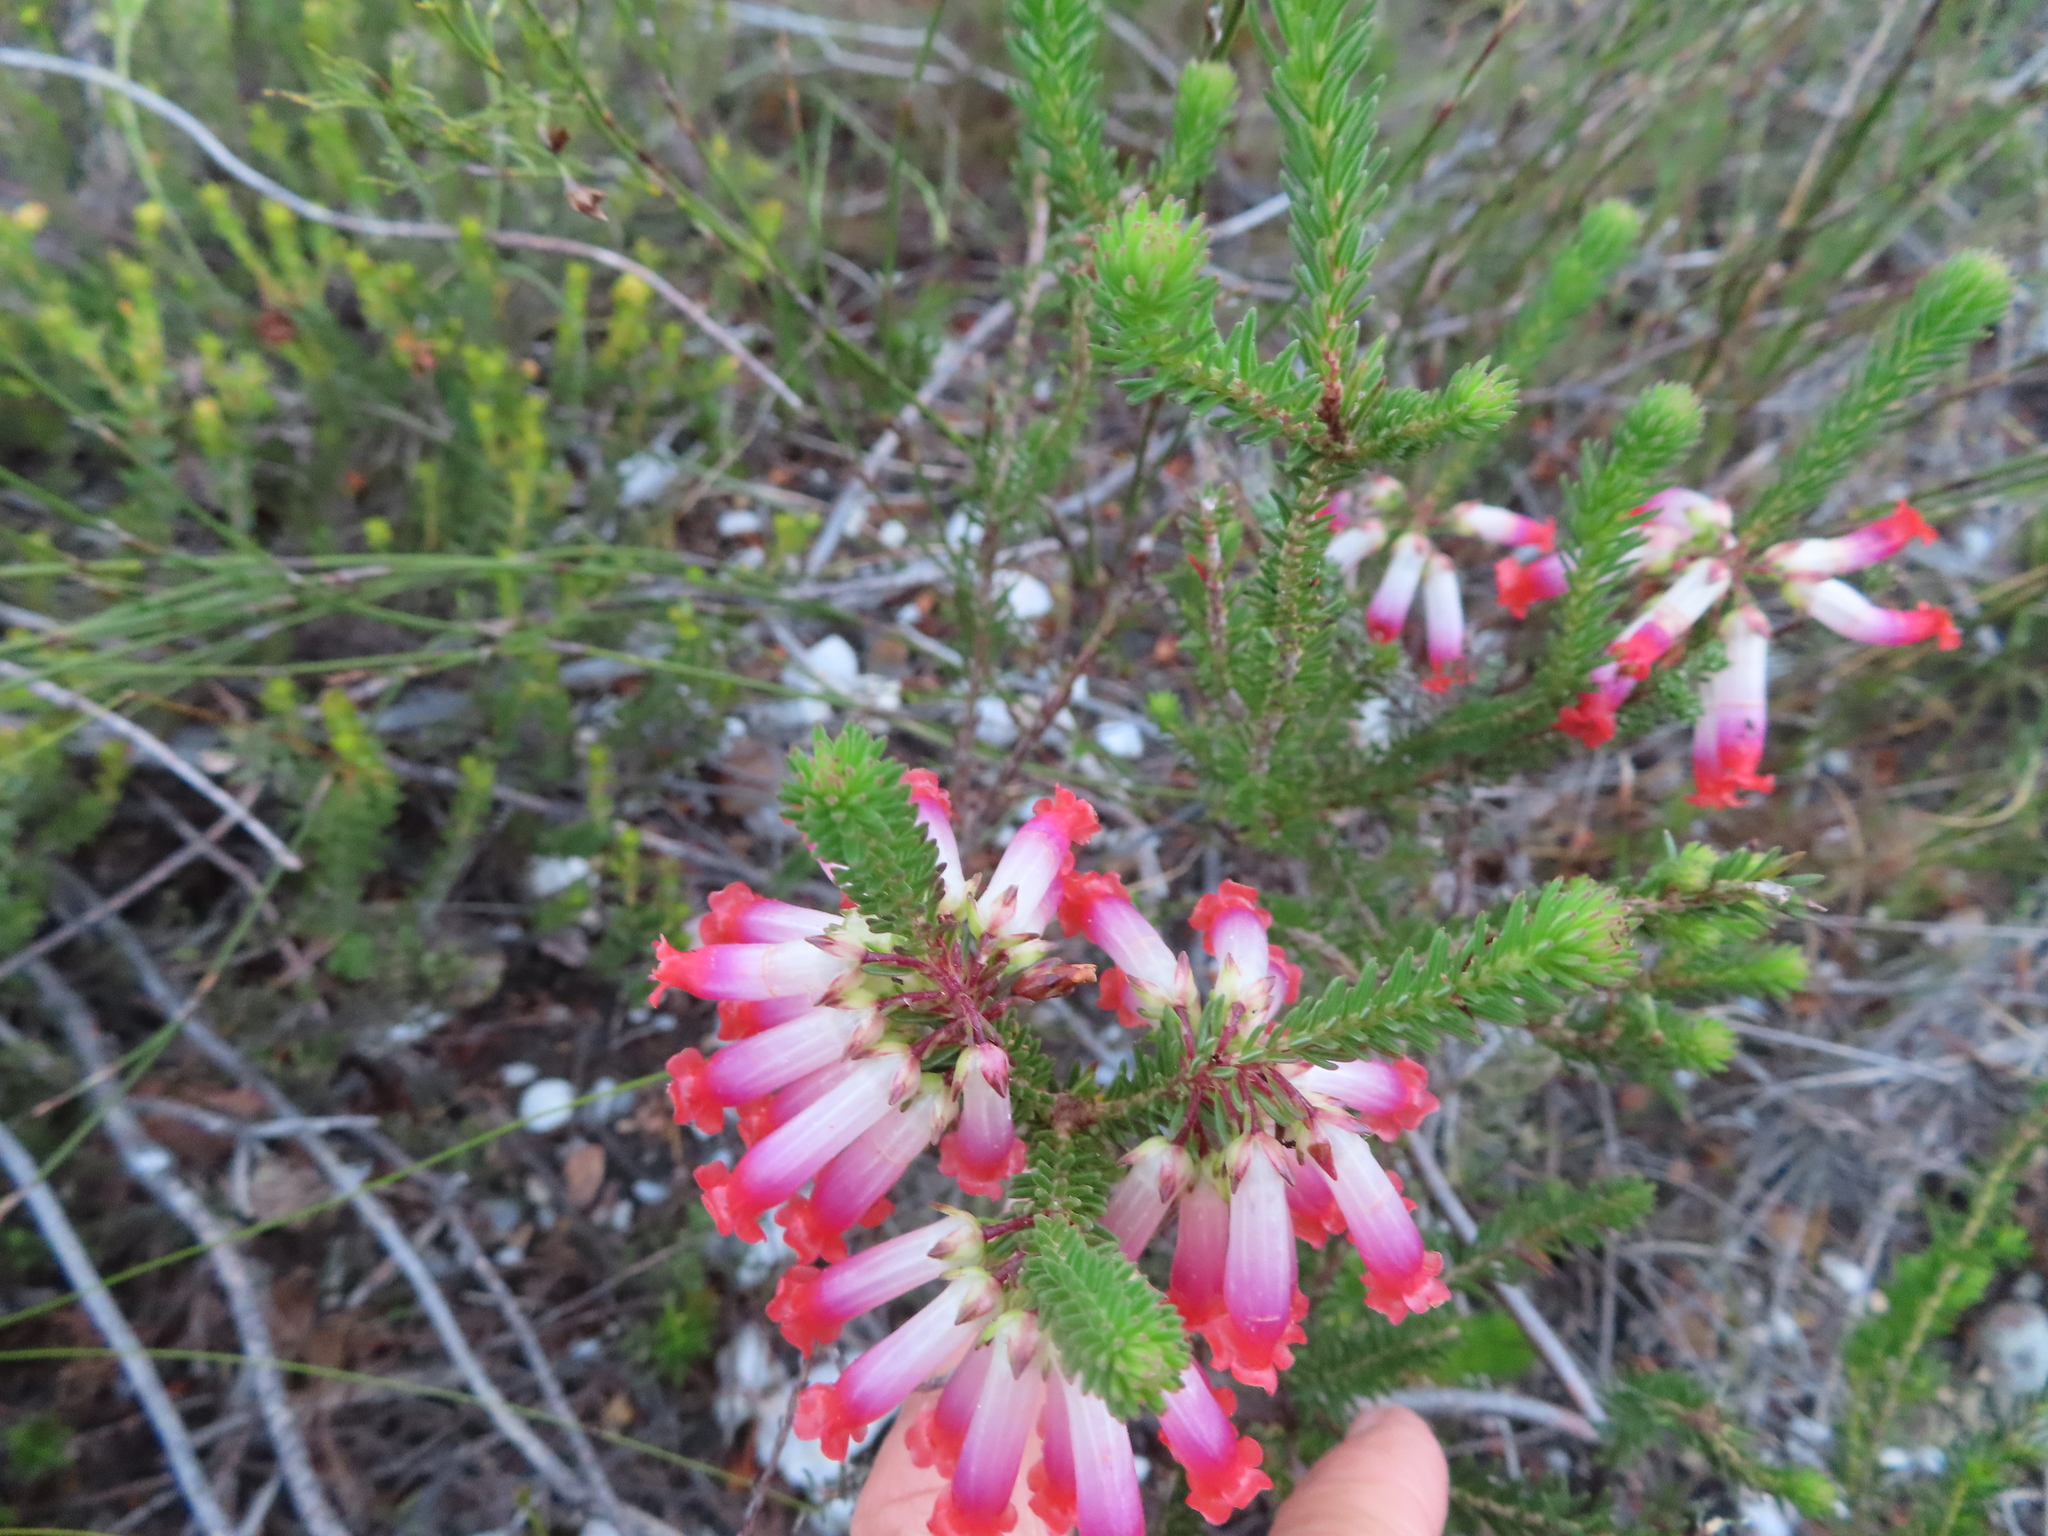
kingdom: Plantae
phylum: Tracheophyta
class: Magnoliopsida
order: Ericales
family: Ericaceae
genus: Erica
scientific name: Erica regia
